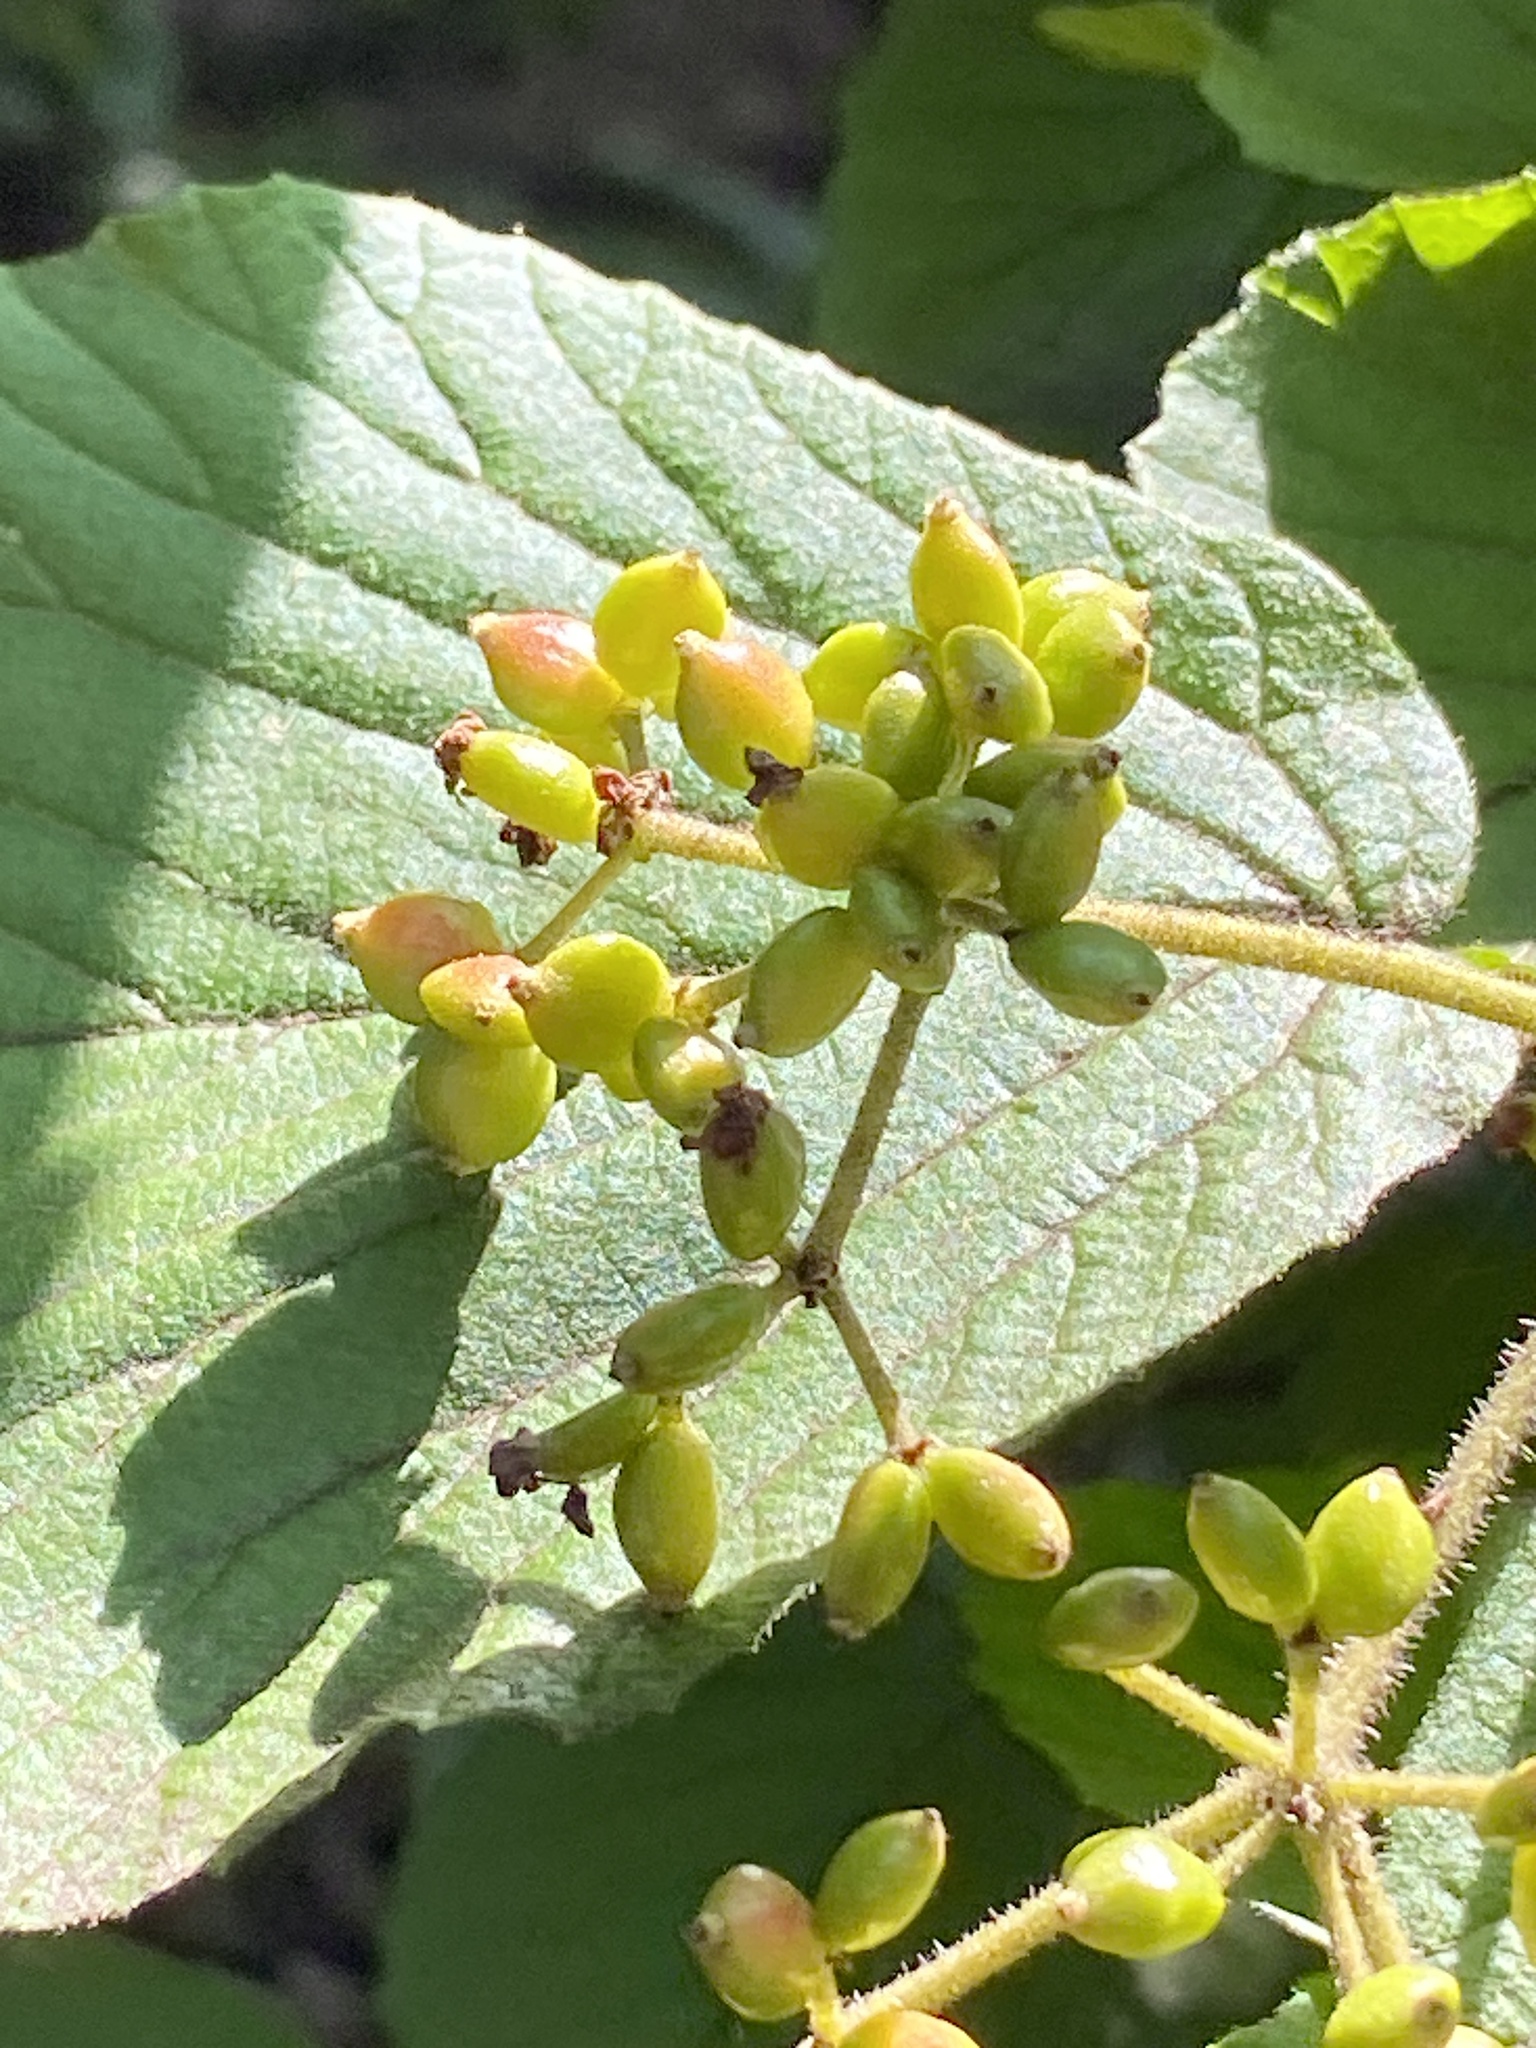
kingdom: Plantae
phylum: Tracheophyta
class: Magnoliopsida
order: Dipsacales
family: Viburnaceae
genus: Viburnum
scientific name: Viburnum dilatatum
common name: Linden arrowwood
